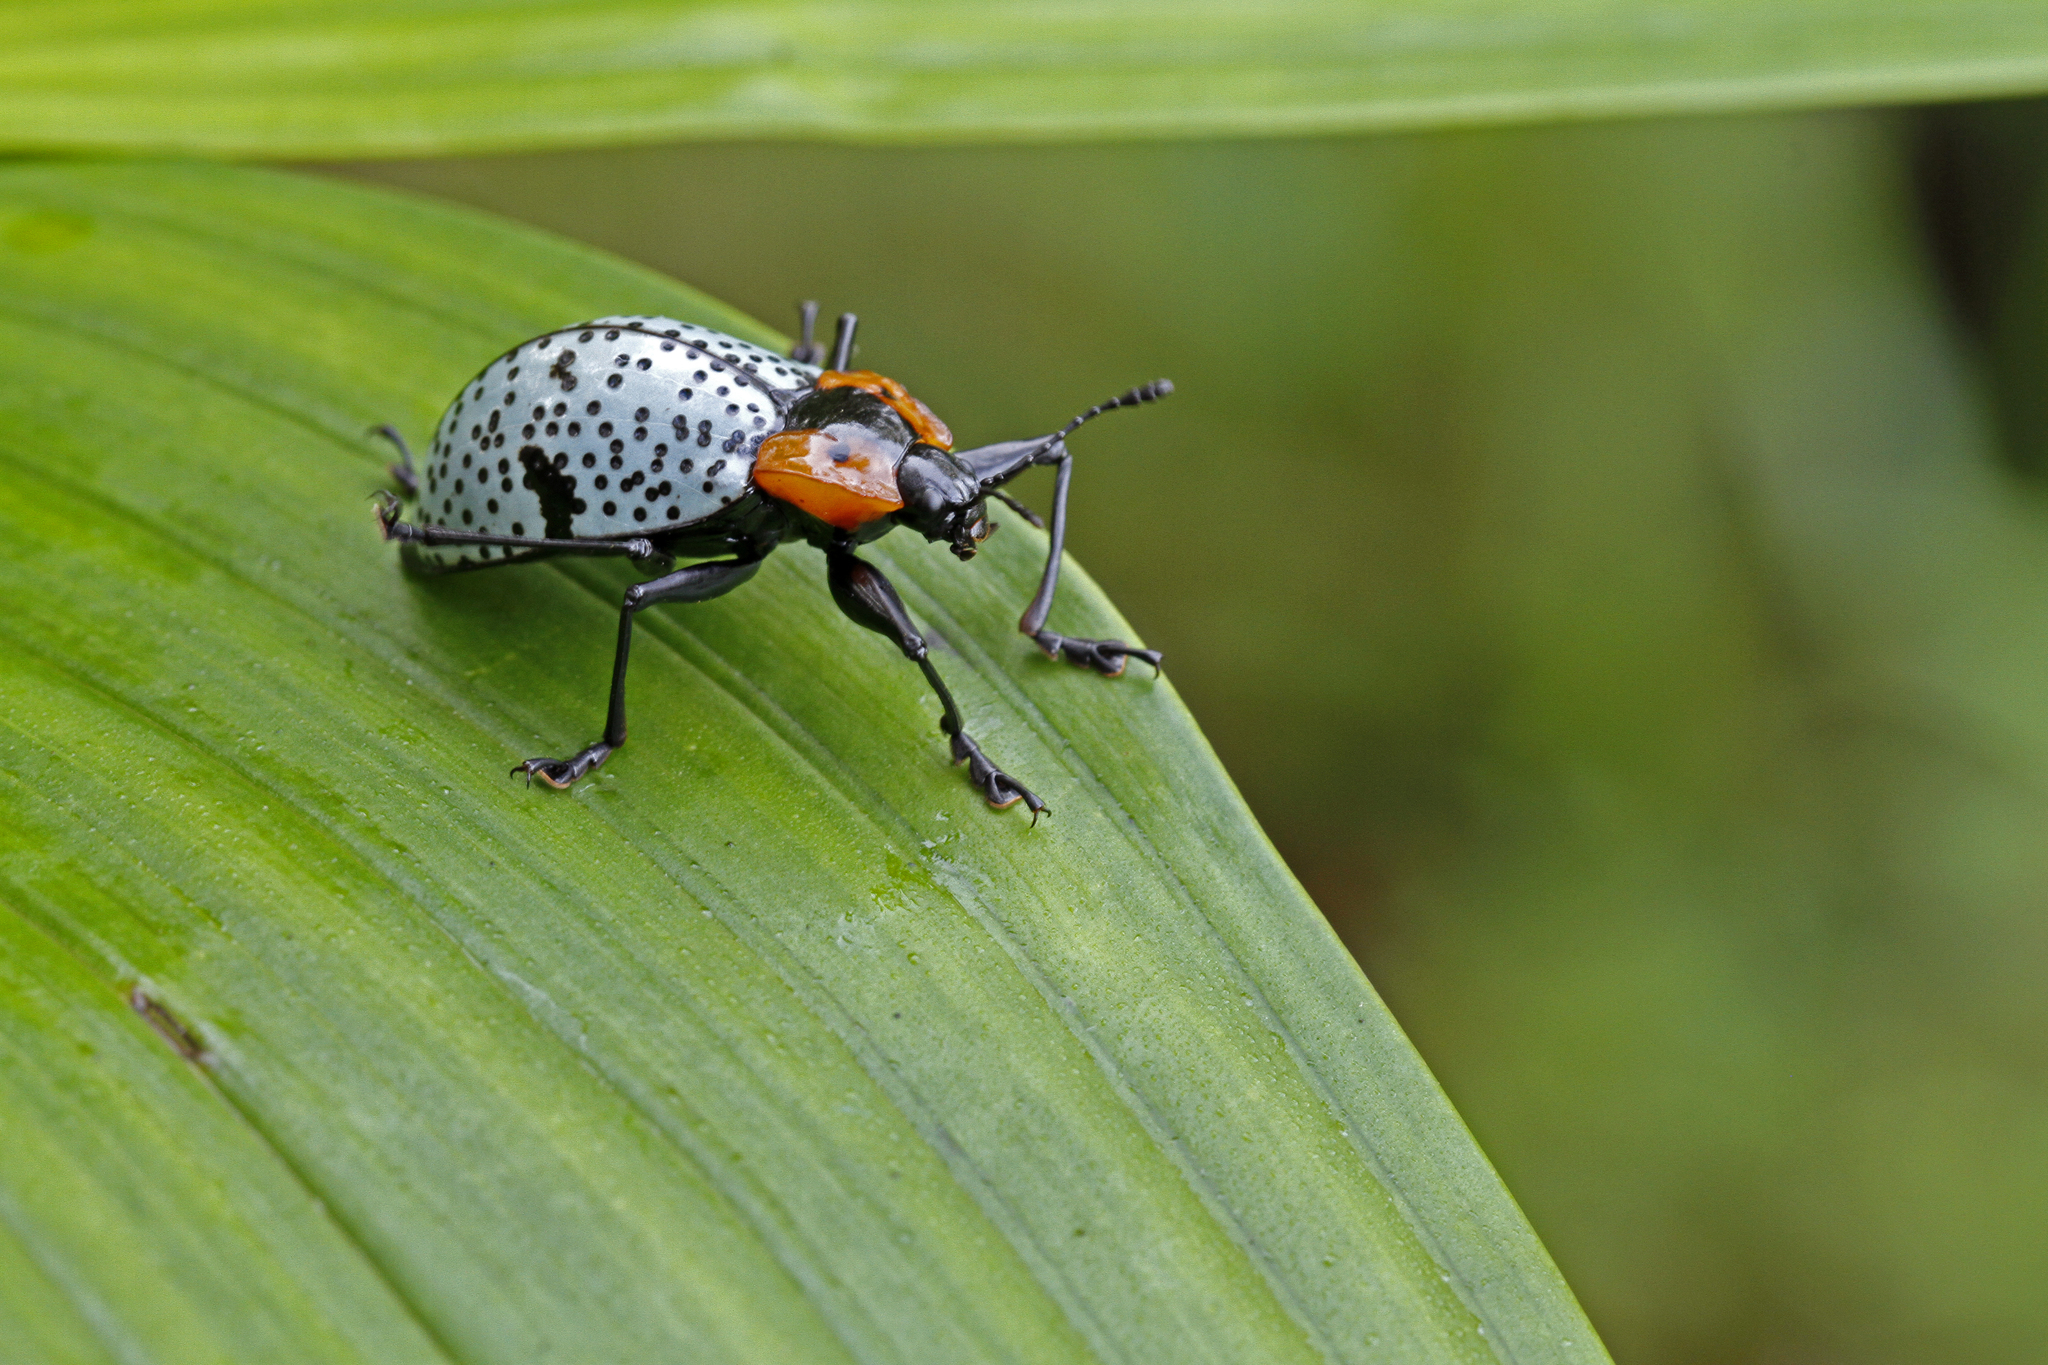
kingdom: Animalia
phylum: Arthropoda
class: Insecta
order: Coleoptera
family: Erotylidae
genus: Gibbifer
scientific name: Gibbifer
